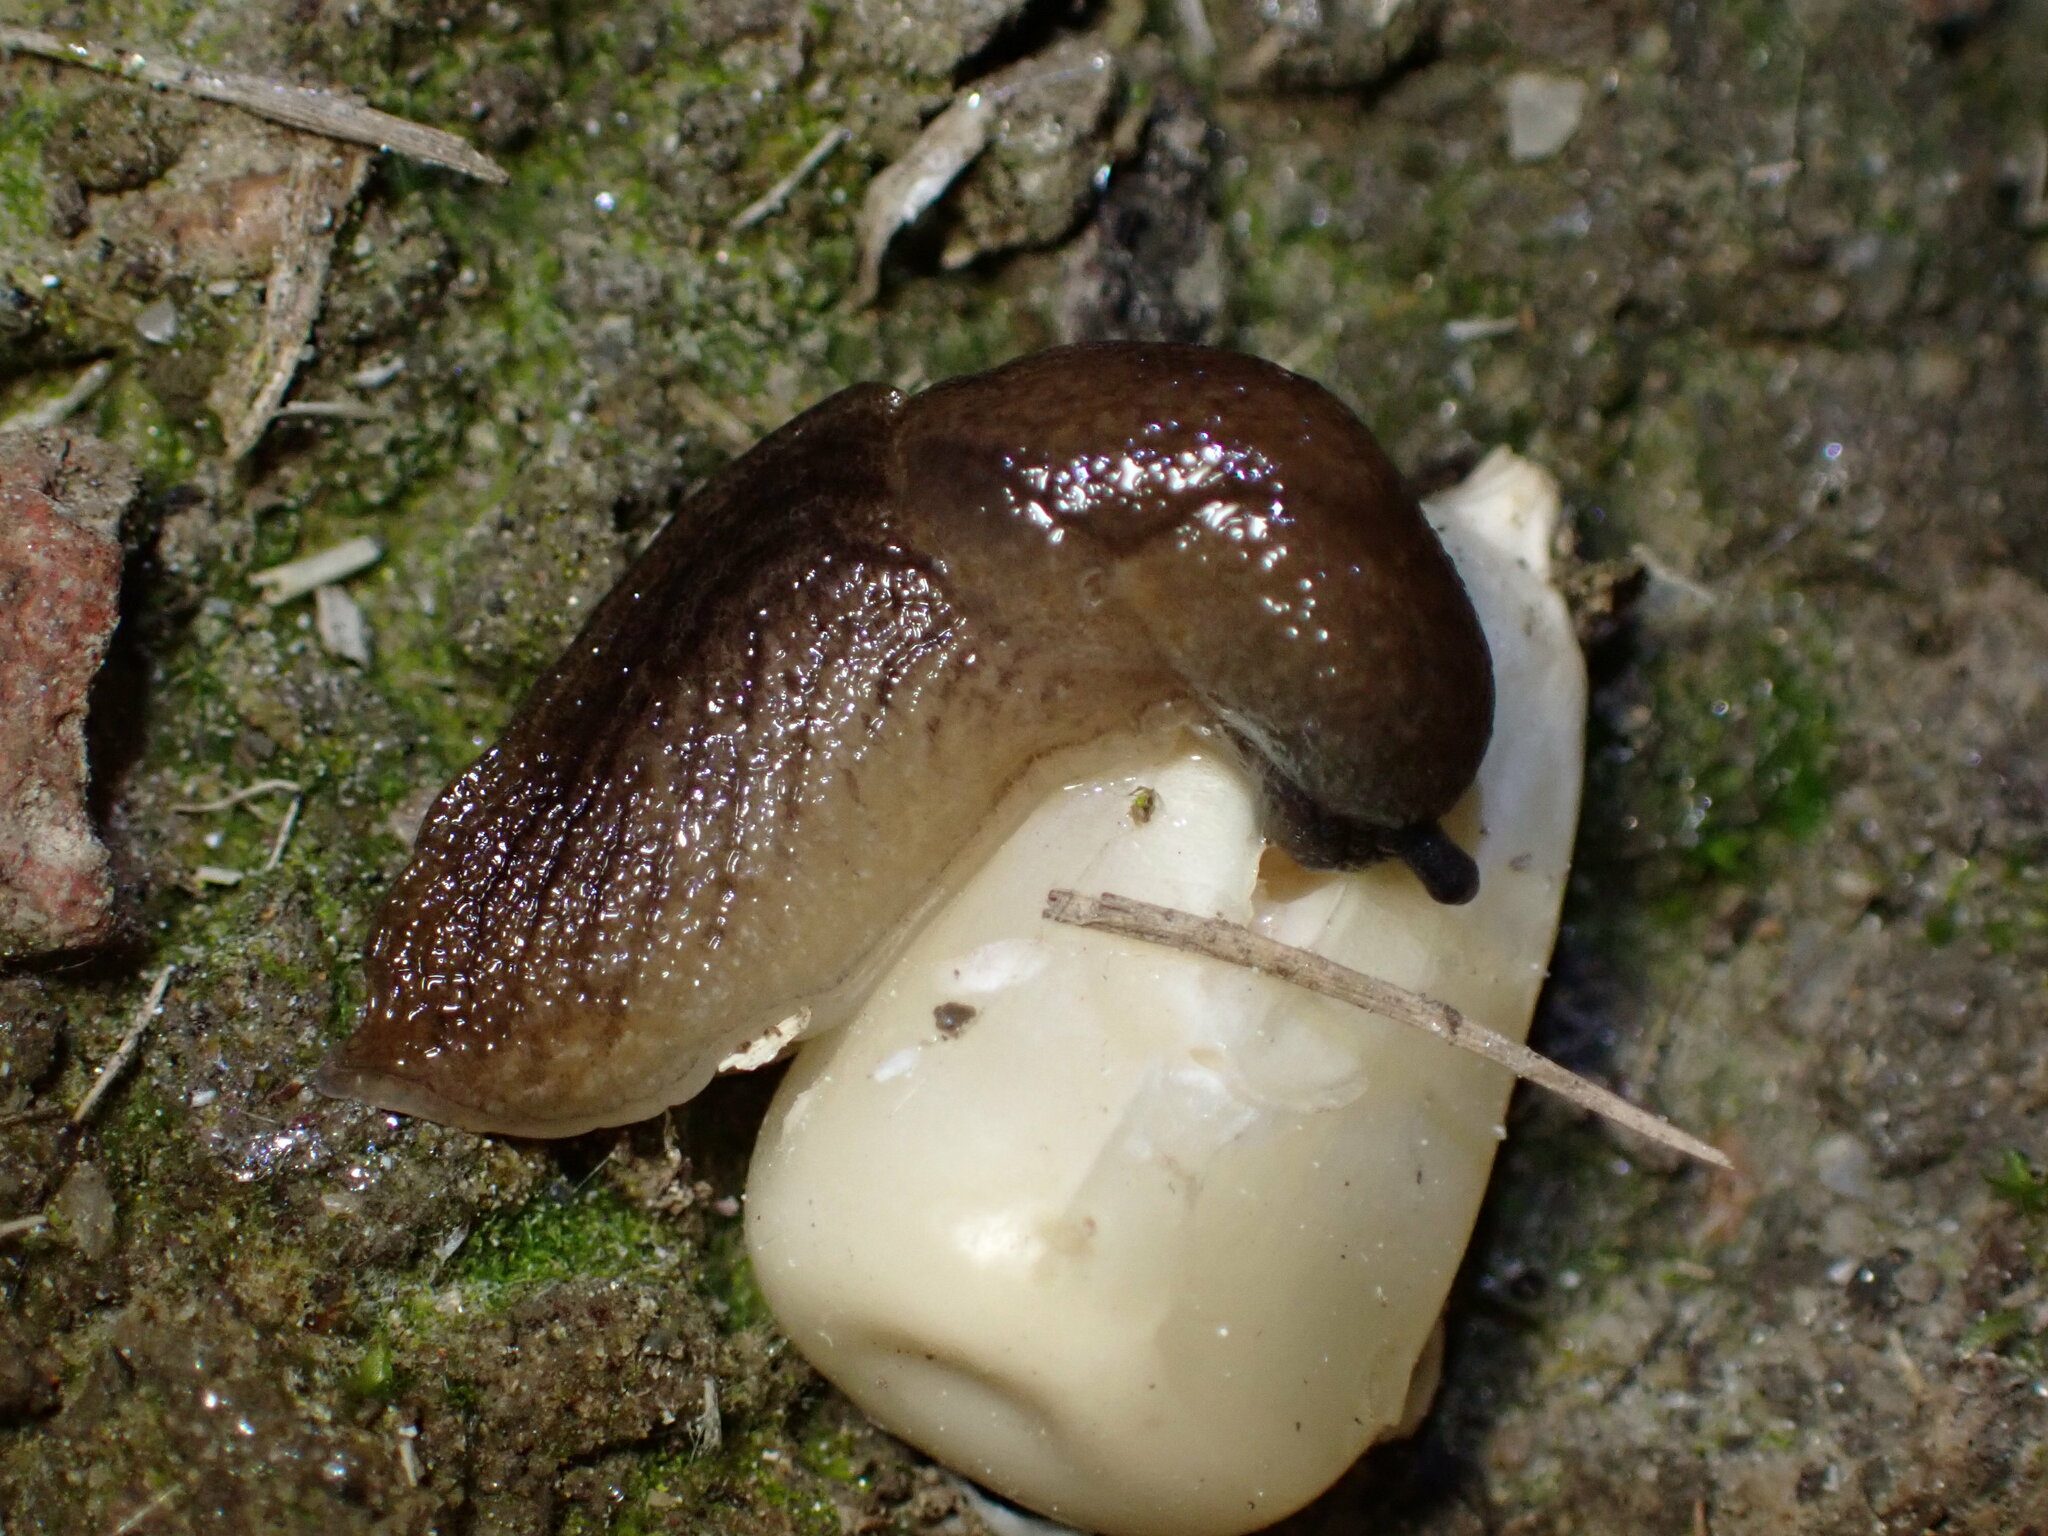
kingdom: Animalia
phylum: Mollusca
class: Gastropoda
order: Stylommatophora
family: Milacidae
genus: Milax
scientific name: Milax gagates
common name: Greenhouse slug
